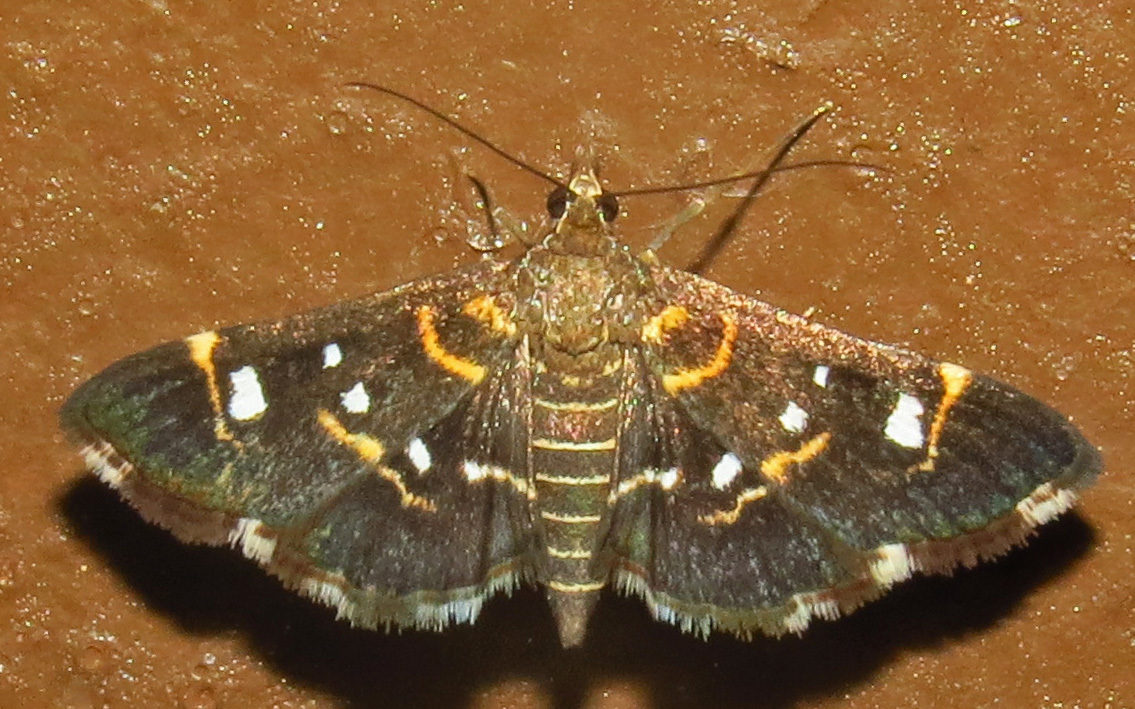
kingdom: Animalia
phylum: Arthropoda
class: Insecta
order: Lepidoptera
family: Crambidae
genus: Diathrausta
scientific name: Diathrausta harlequinalis
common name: Harlequin webworm moth
